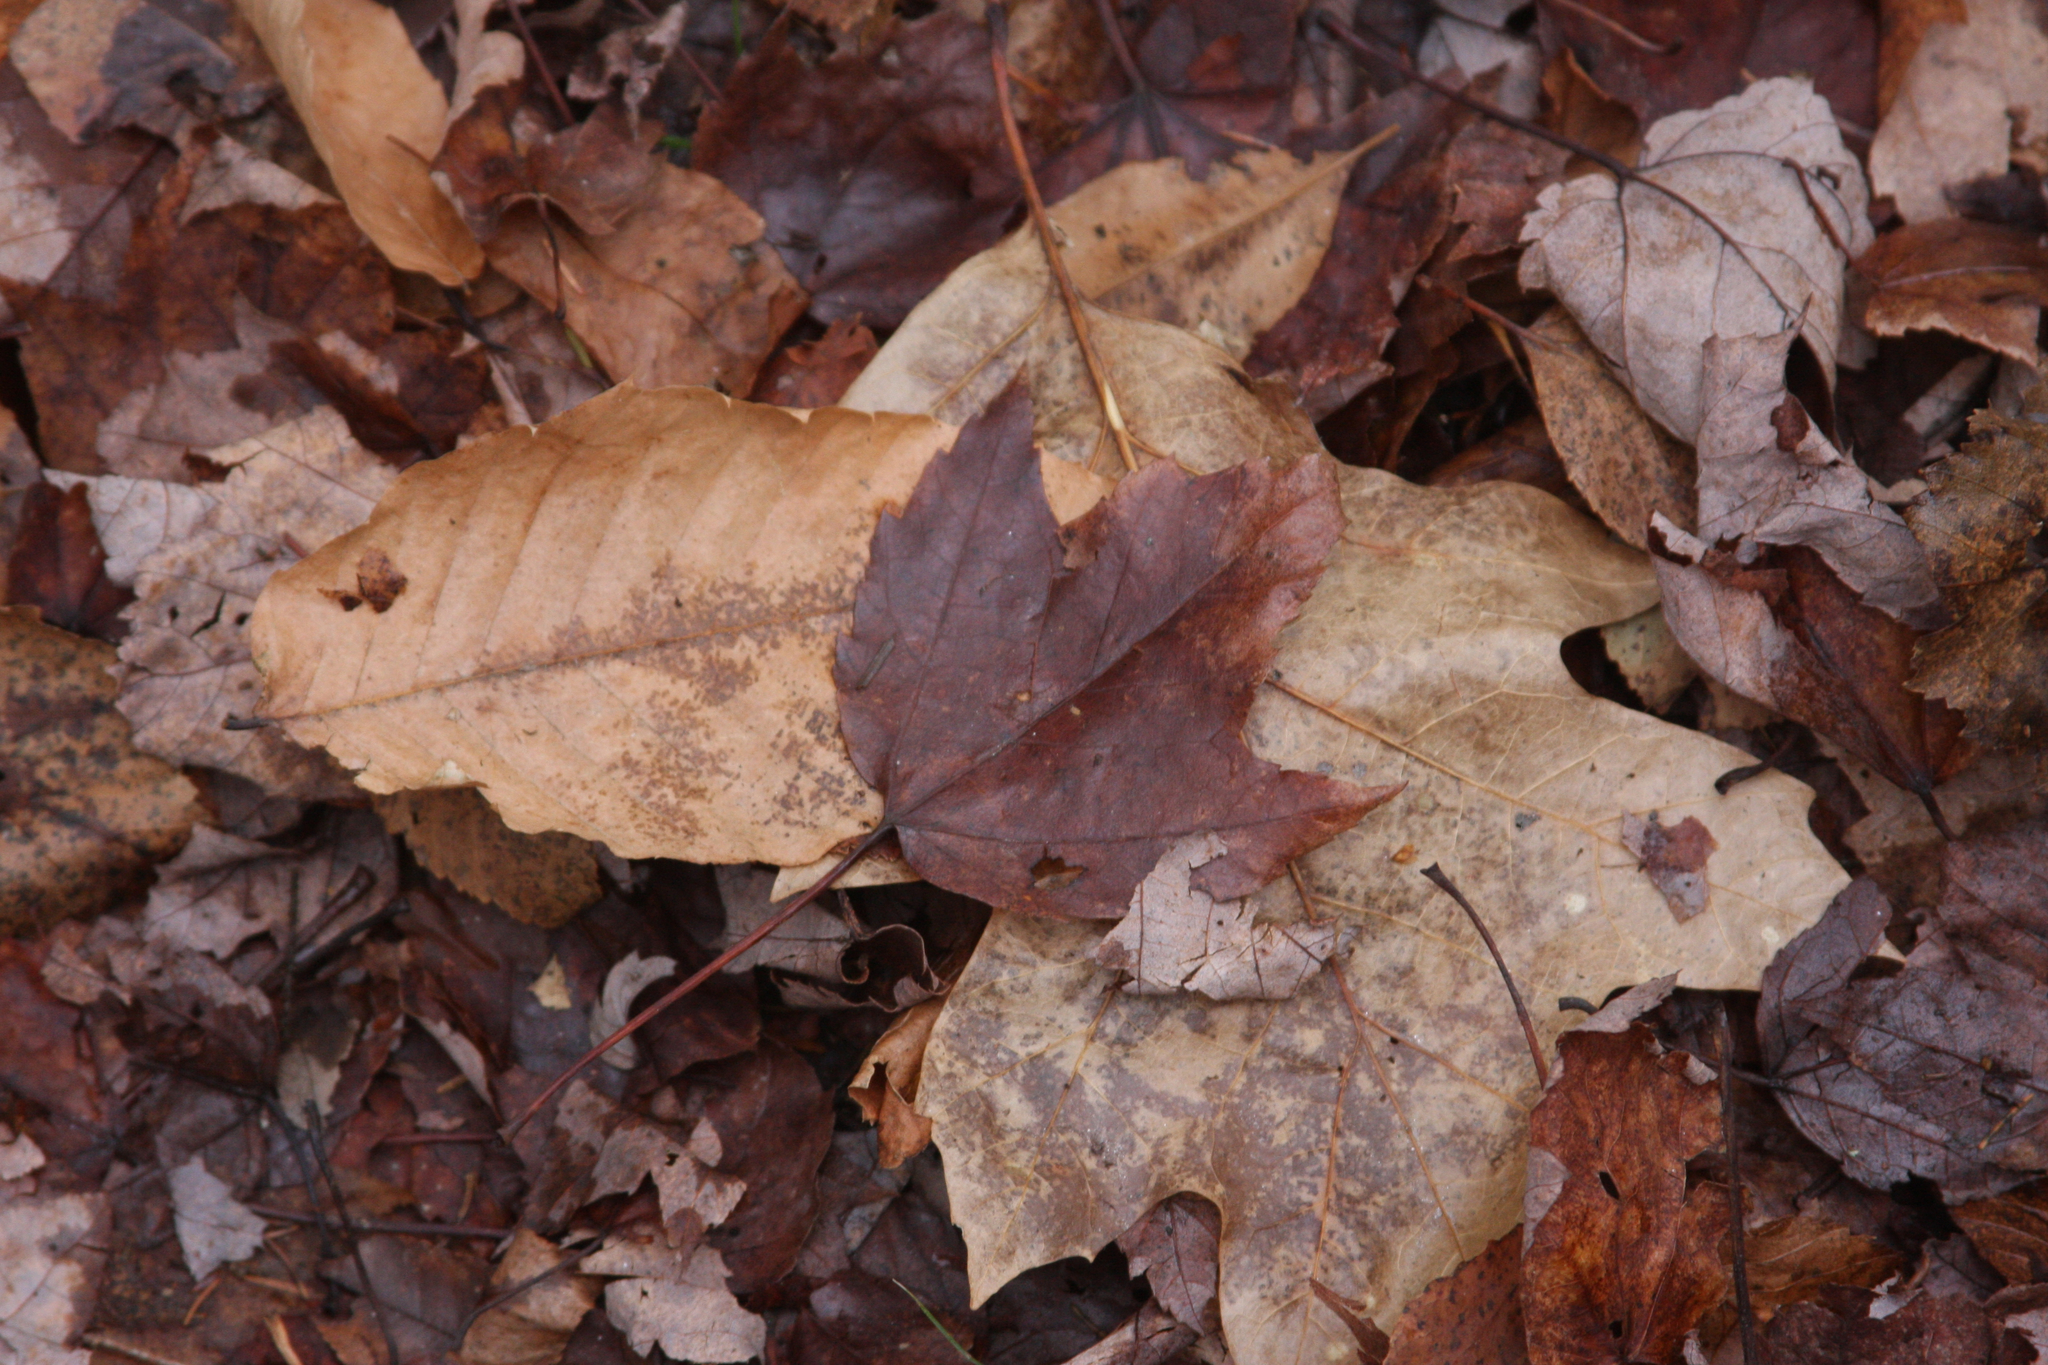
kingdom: Plantae
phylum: Tracheophyta
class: Magnoliopsida
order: Sapindales
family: Sapindaceae
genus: Acer
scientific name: Acer rubrum
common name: Red maple
